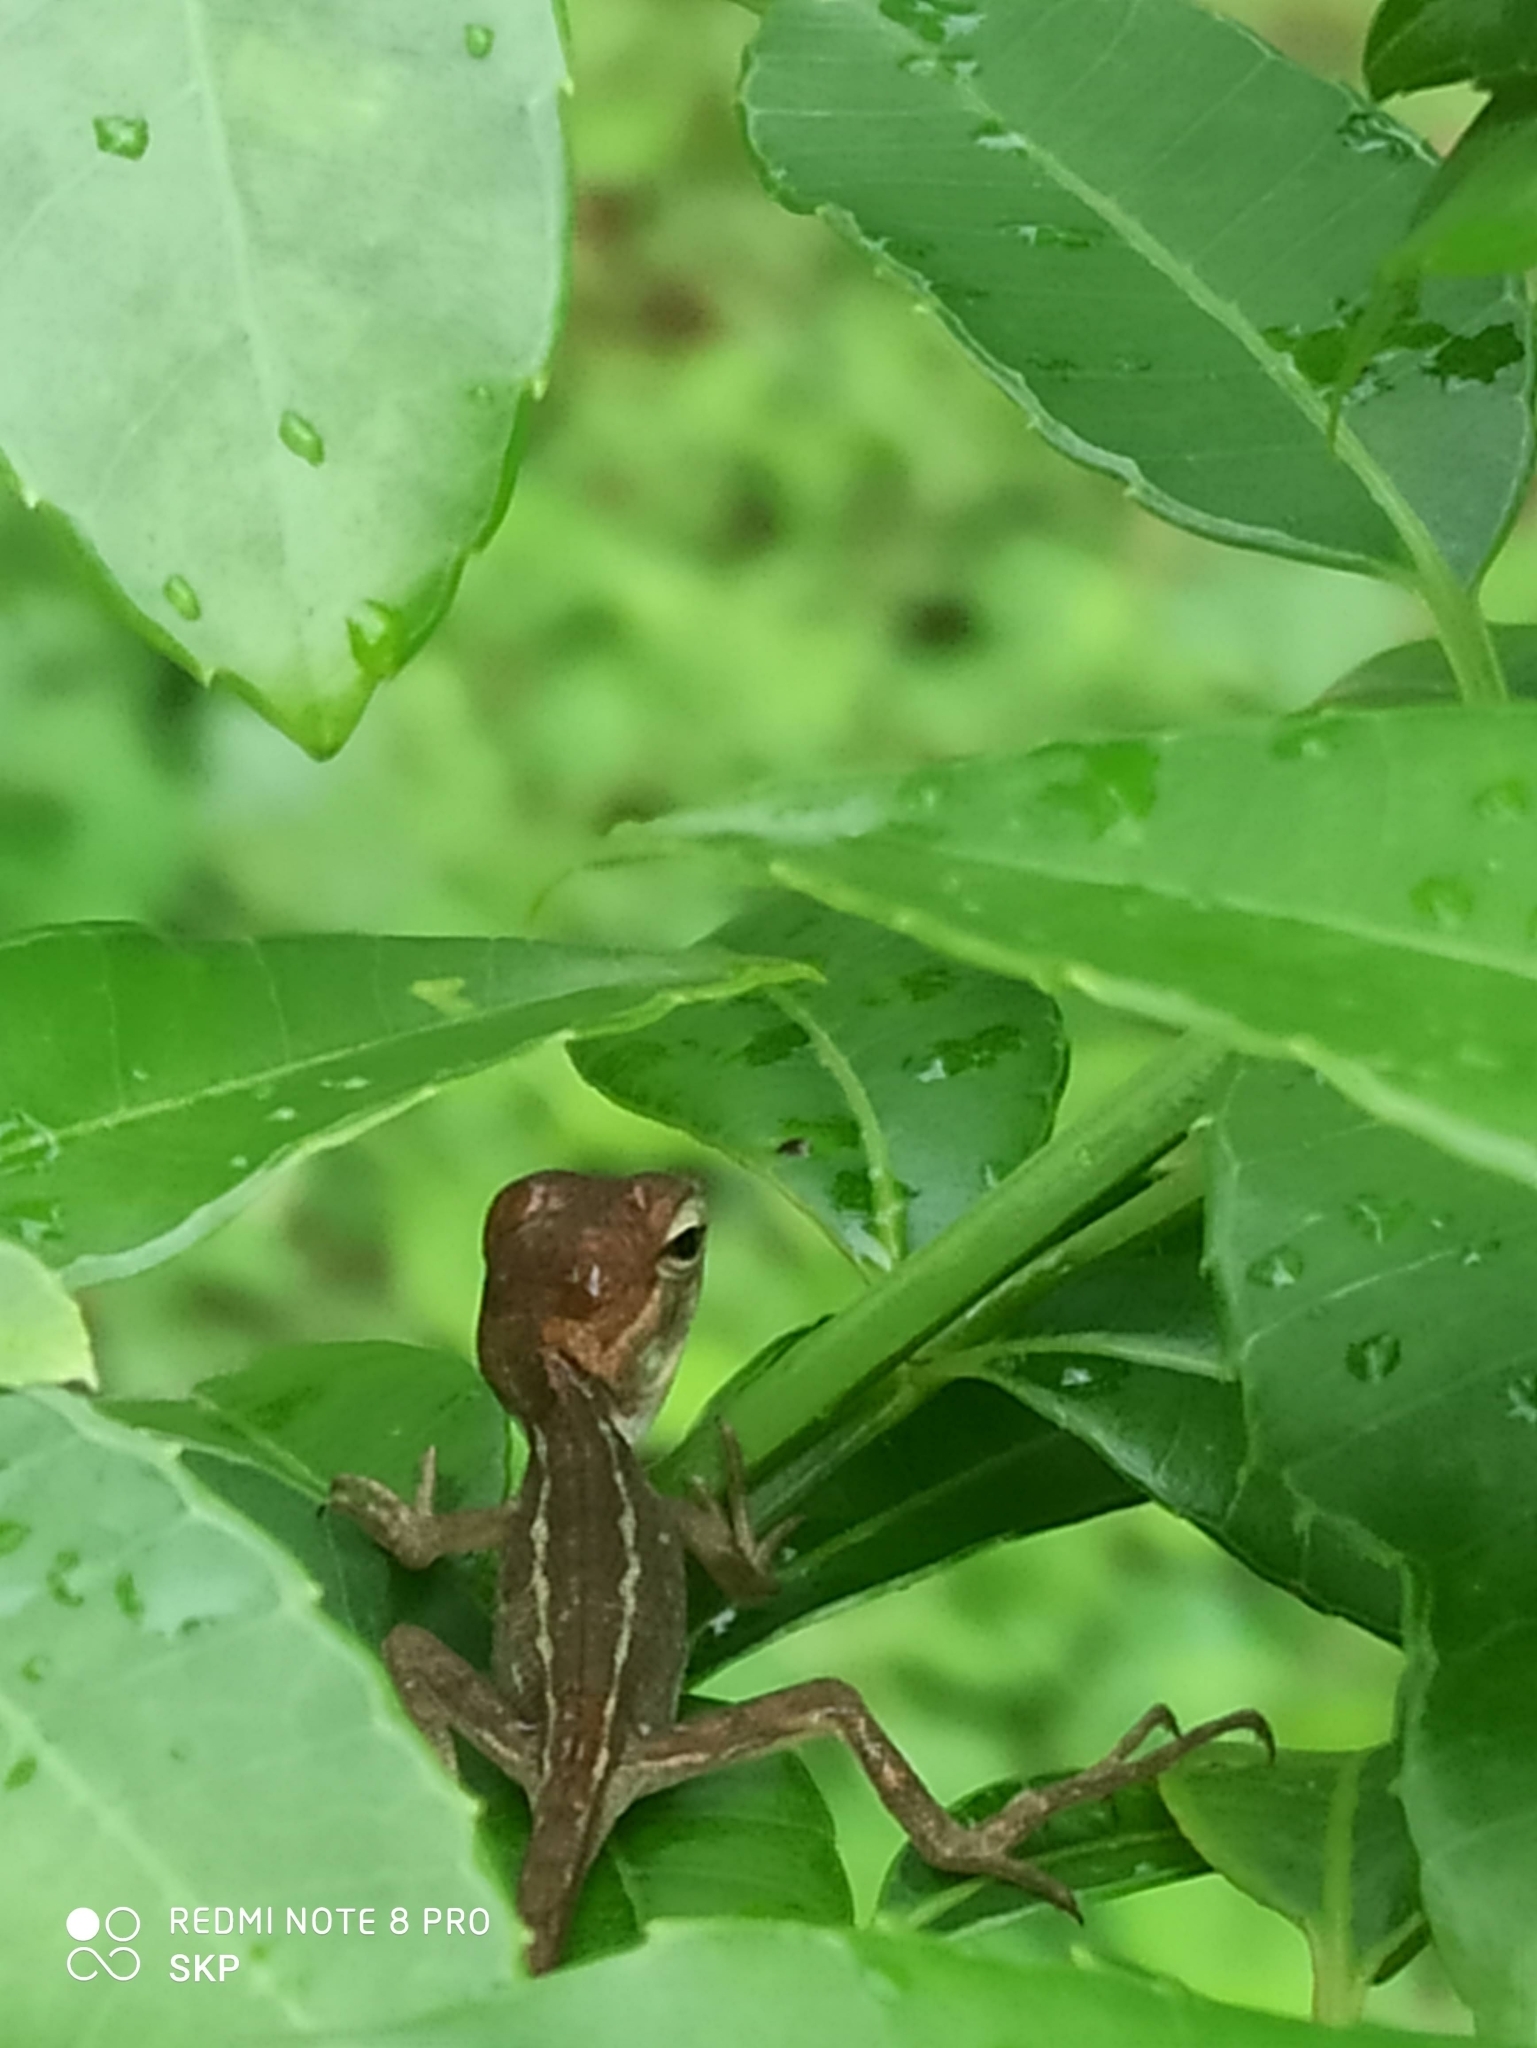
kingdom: Animalia
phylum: Chordata
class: Squamata
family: Agamidae
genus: Calotes
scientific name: Calotes versicolor
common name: Oriental garden lizard
